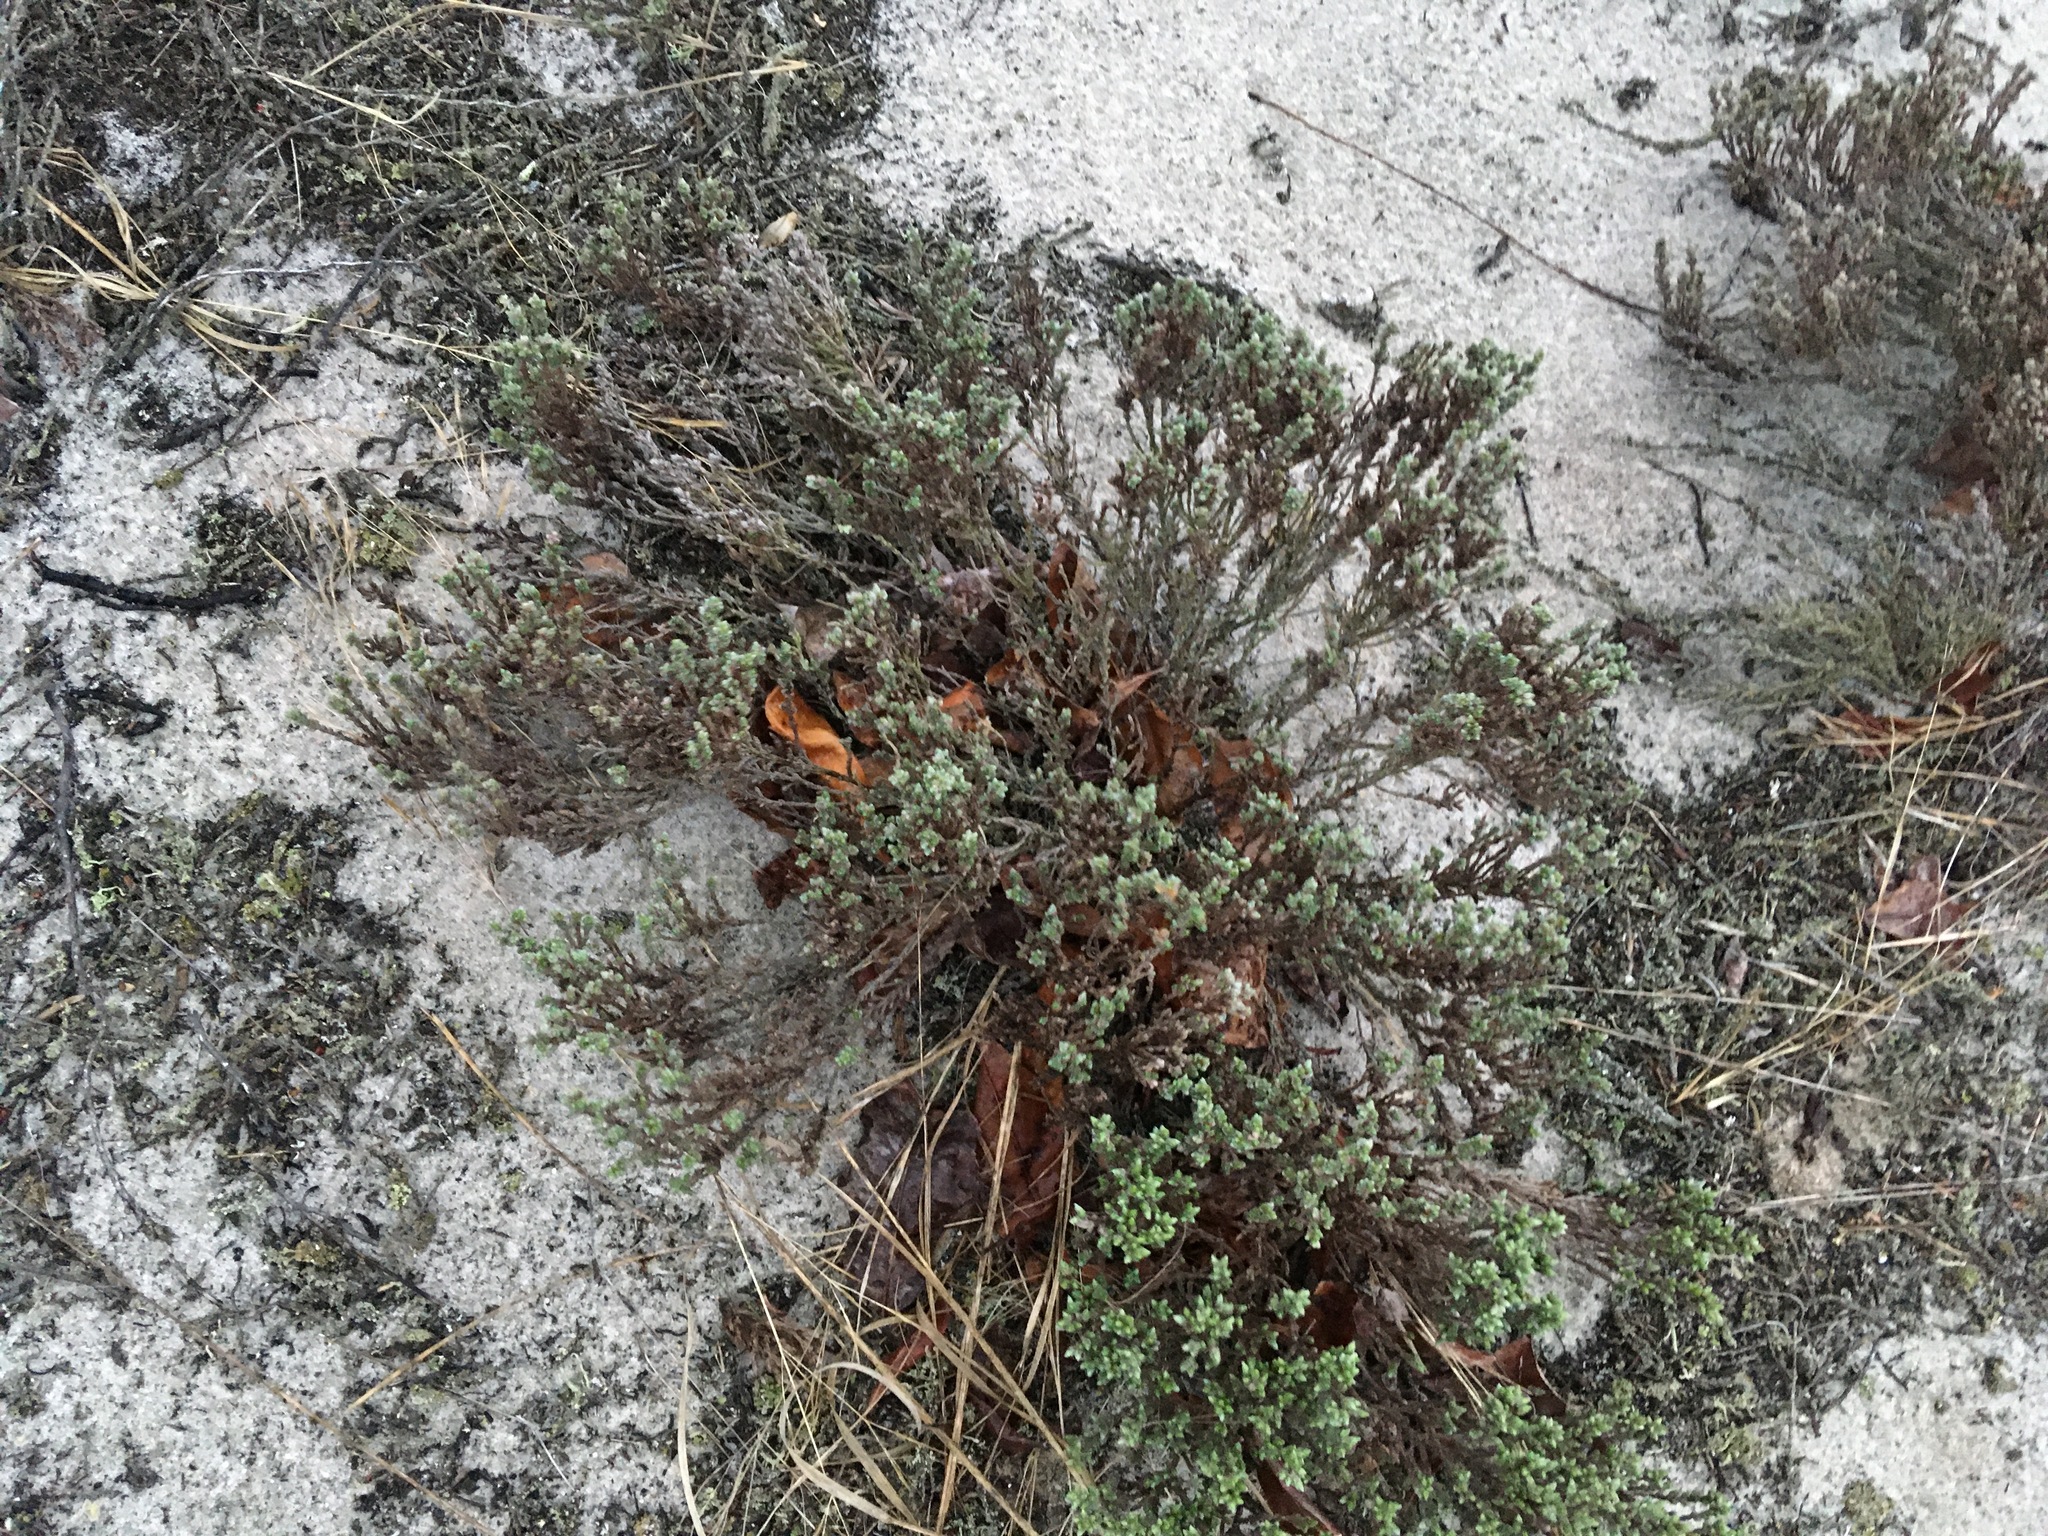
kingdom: Plantae
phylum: Tracheophyta
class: Magnoliopsida
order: Malvales
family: Cistaceae
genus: Hudsonia
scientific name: Hudsonia tomentosa
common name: Beach-heath
